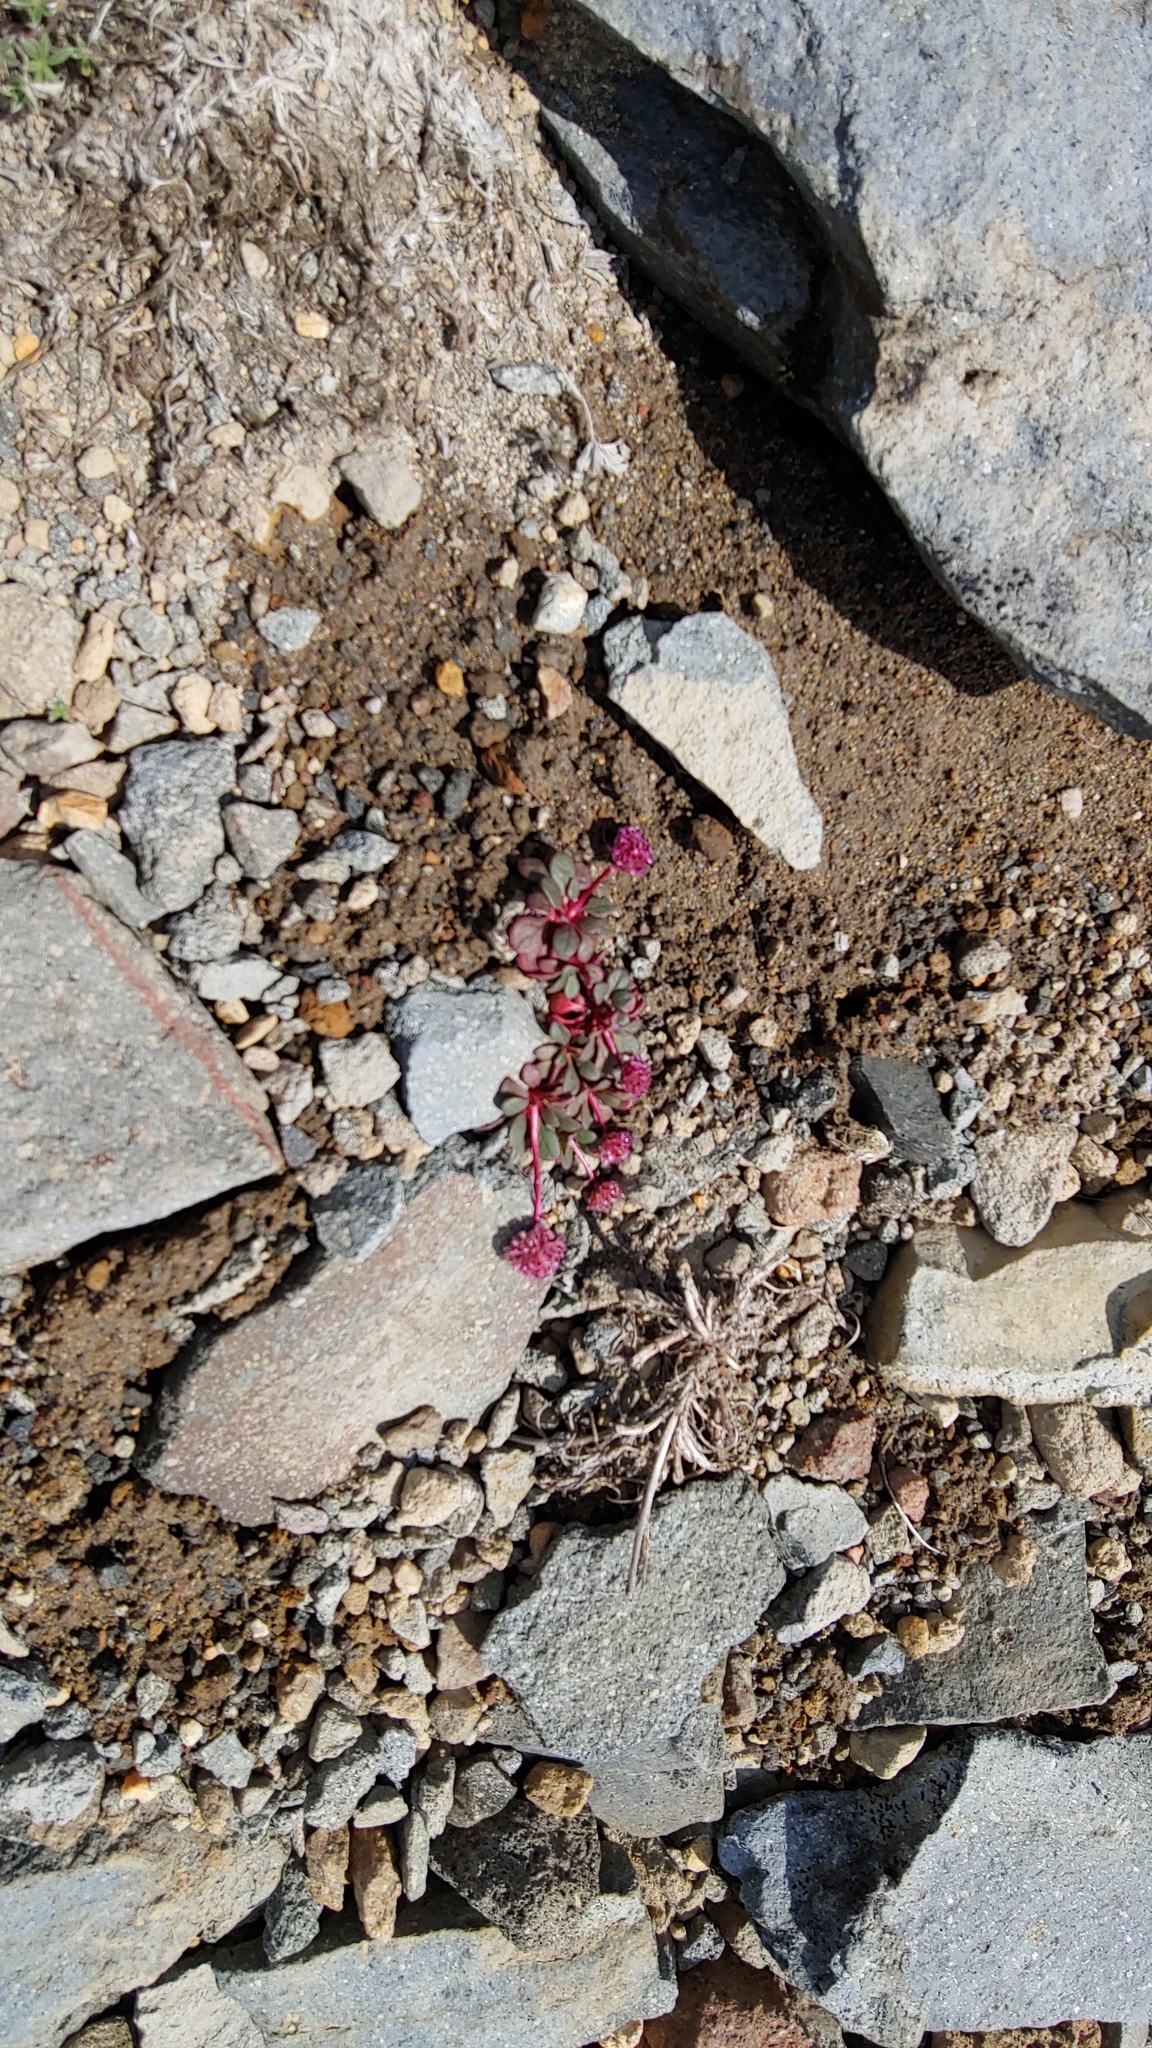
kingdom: Plantae
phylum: Tracheophyta
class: Magnoliopsida
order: Caryophyllales
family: Montiaceae
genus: Calyptridium
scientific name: Calyptridium umbellatum
